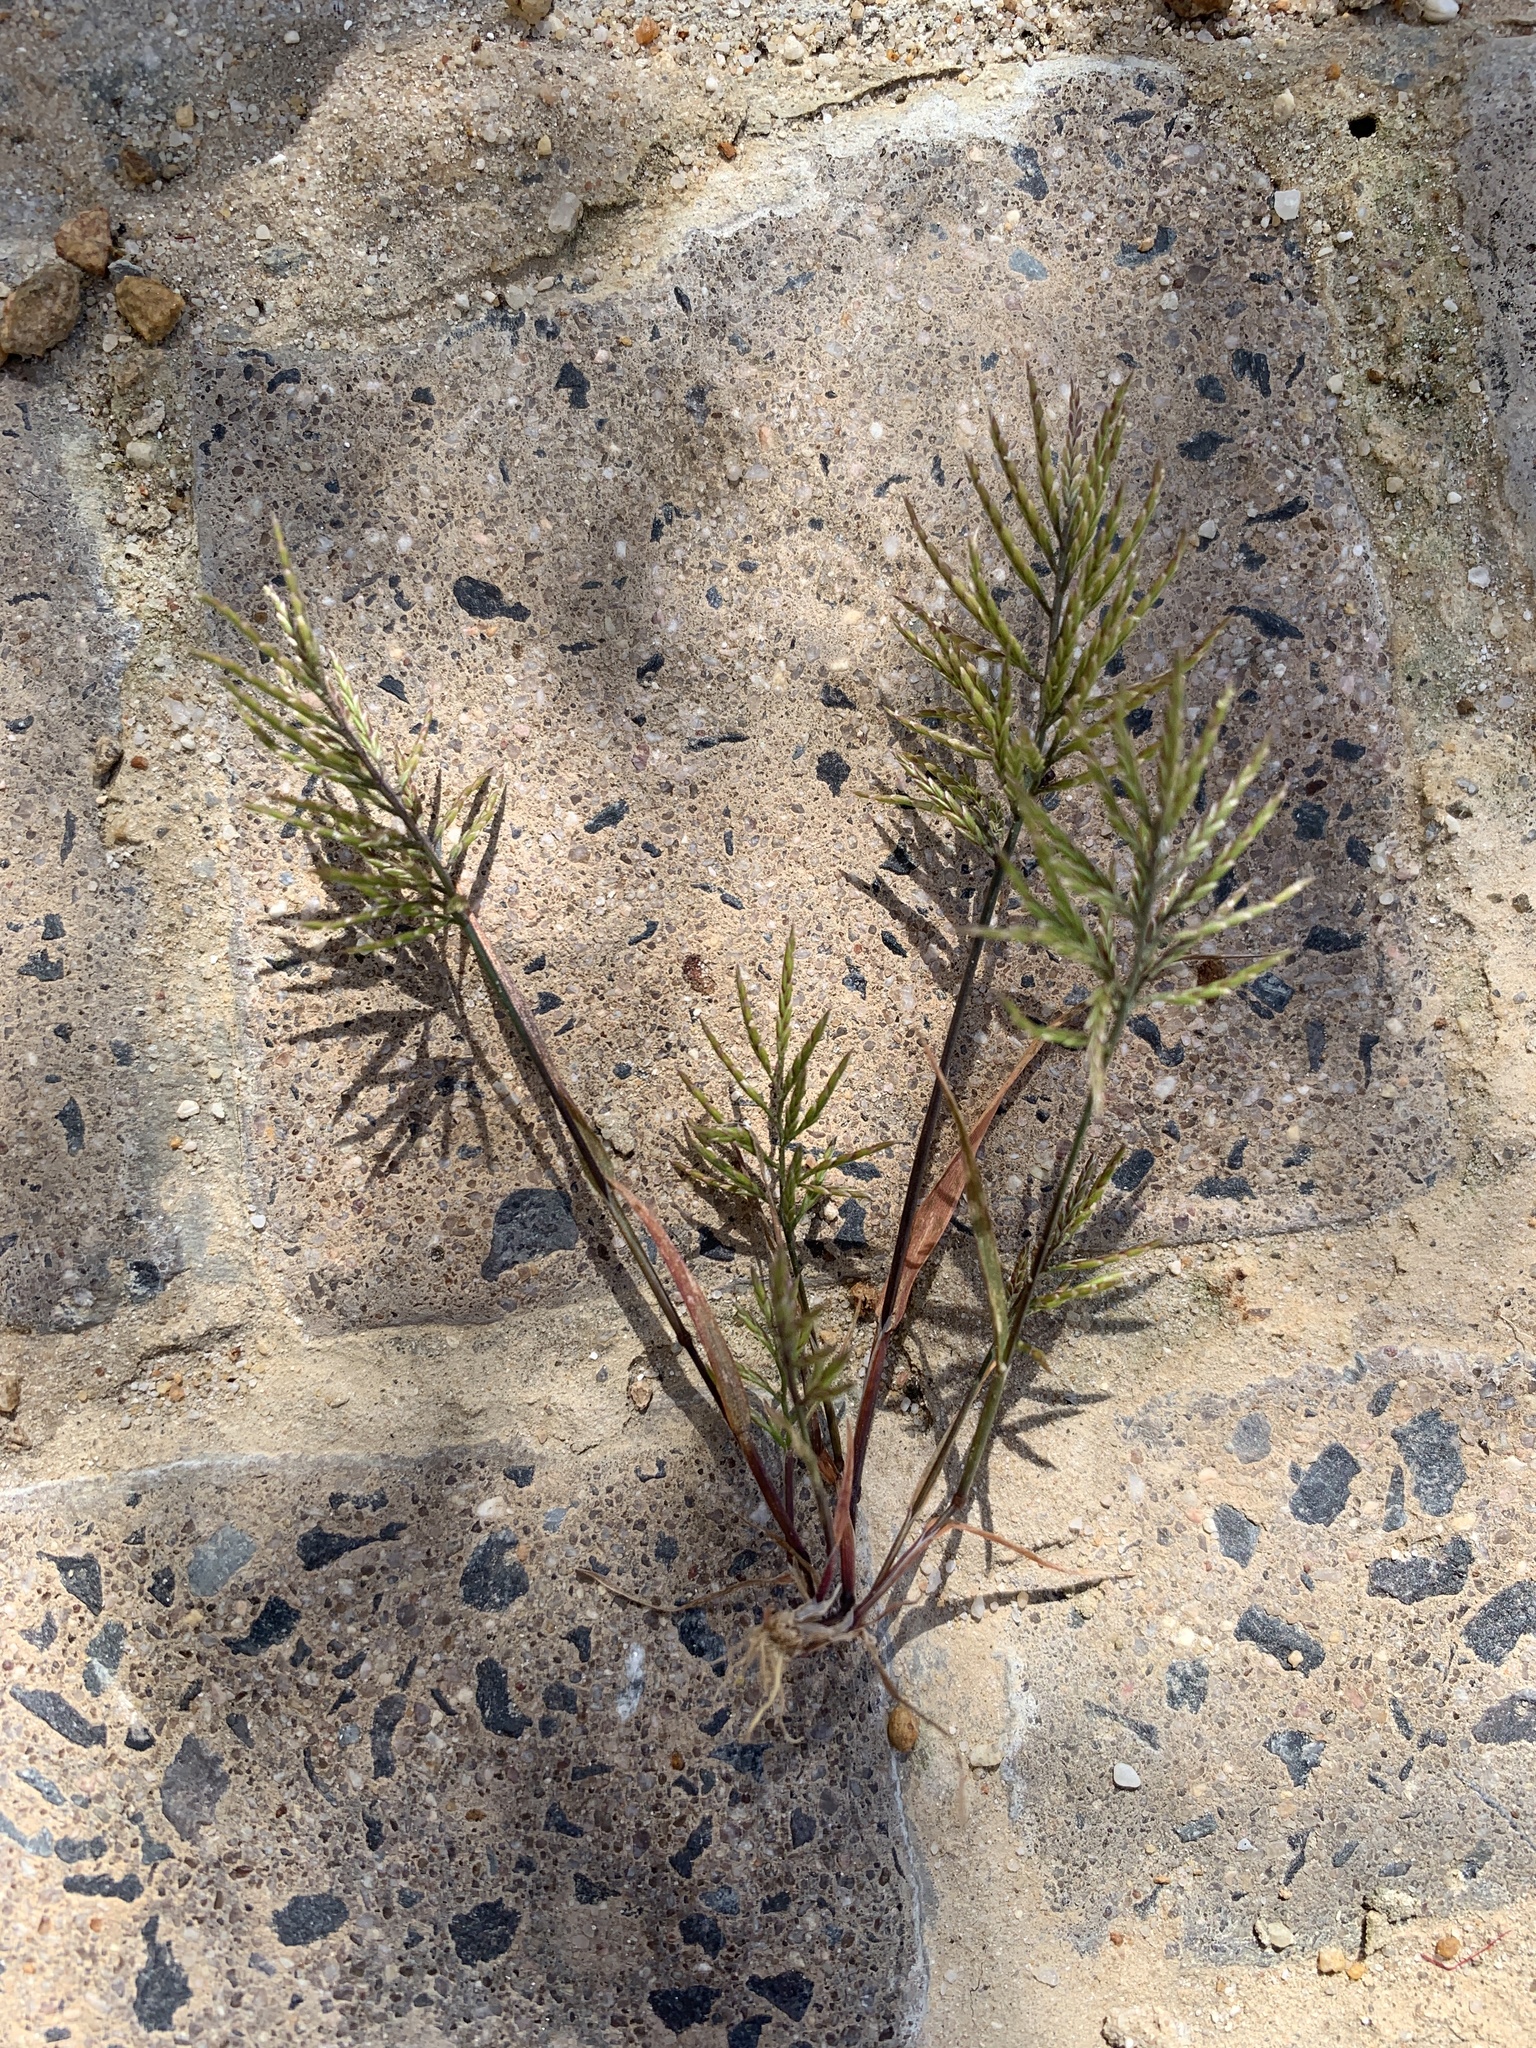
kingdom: Plantae
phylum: Tracheophyta
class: Liliopsida
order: Poales
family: Poaceae
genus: Catapodium
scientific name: Catapodium rigidum
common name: Fern-grass
